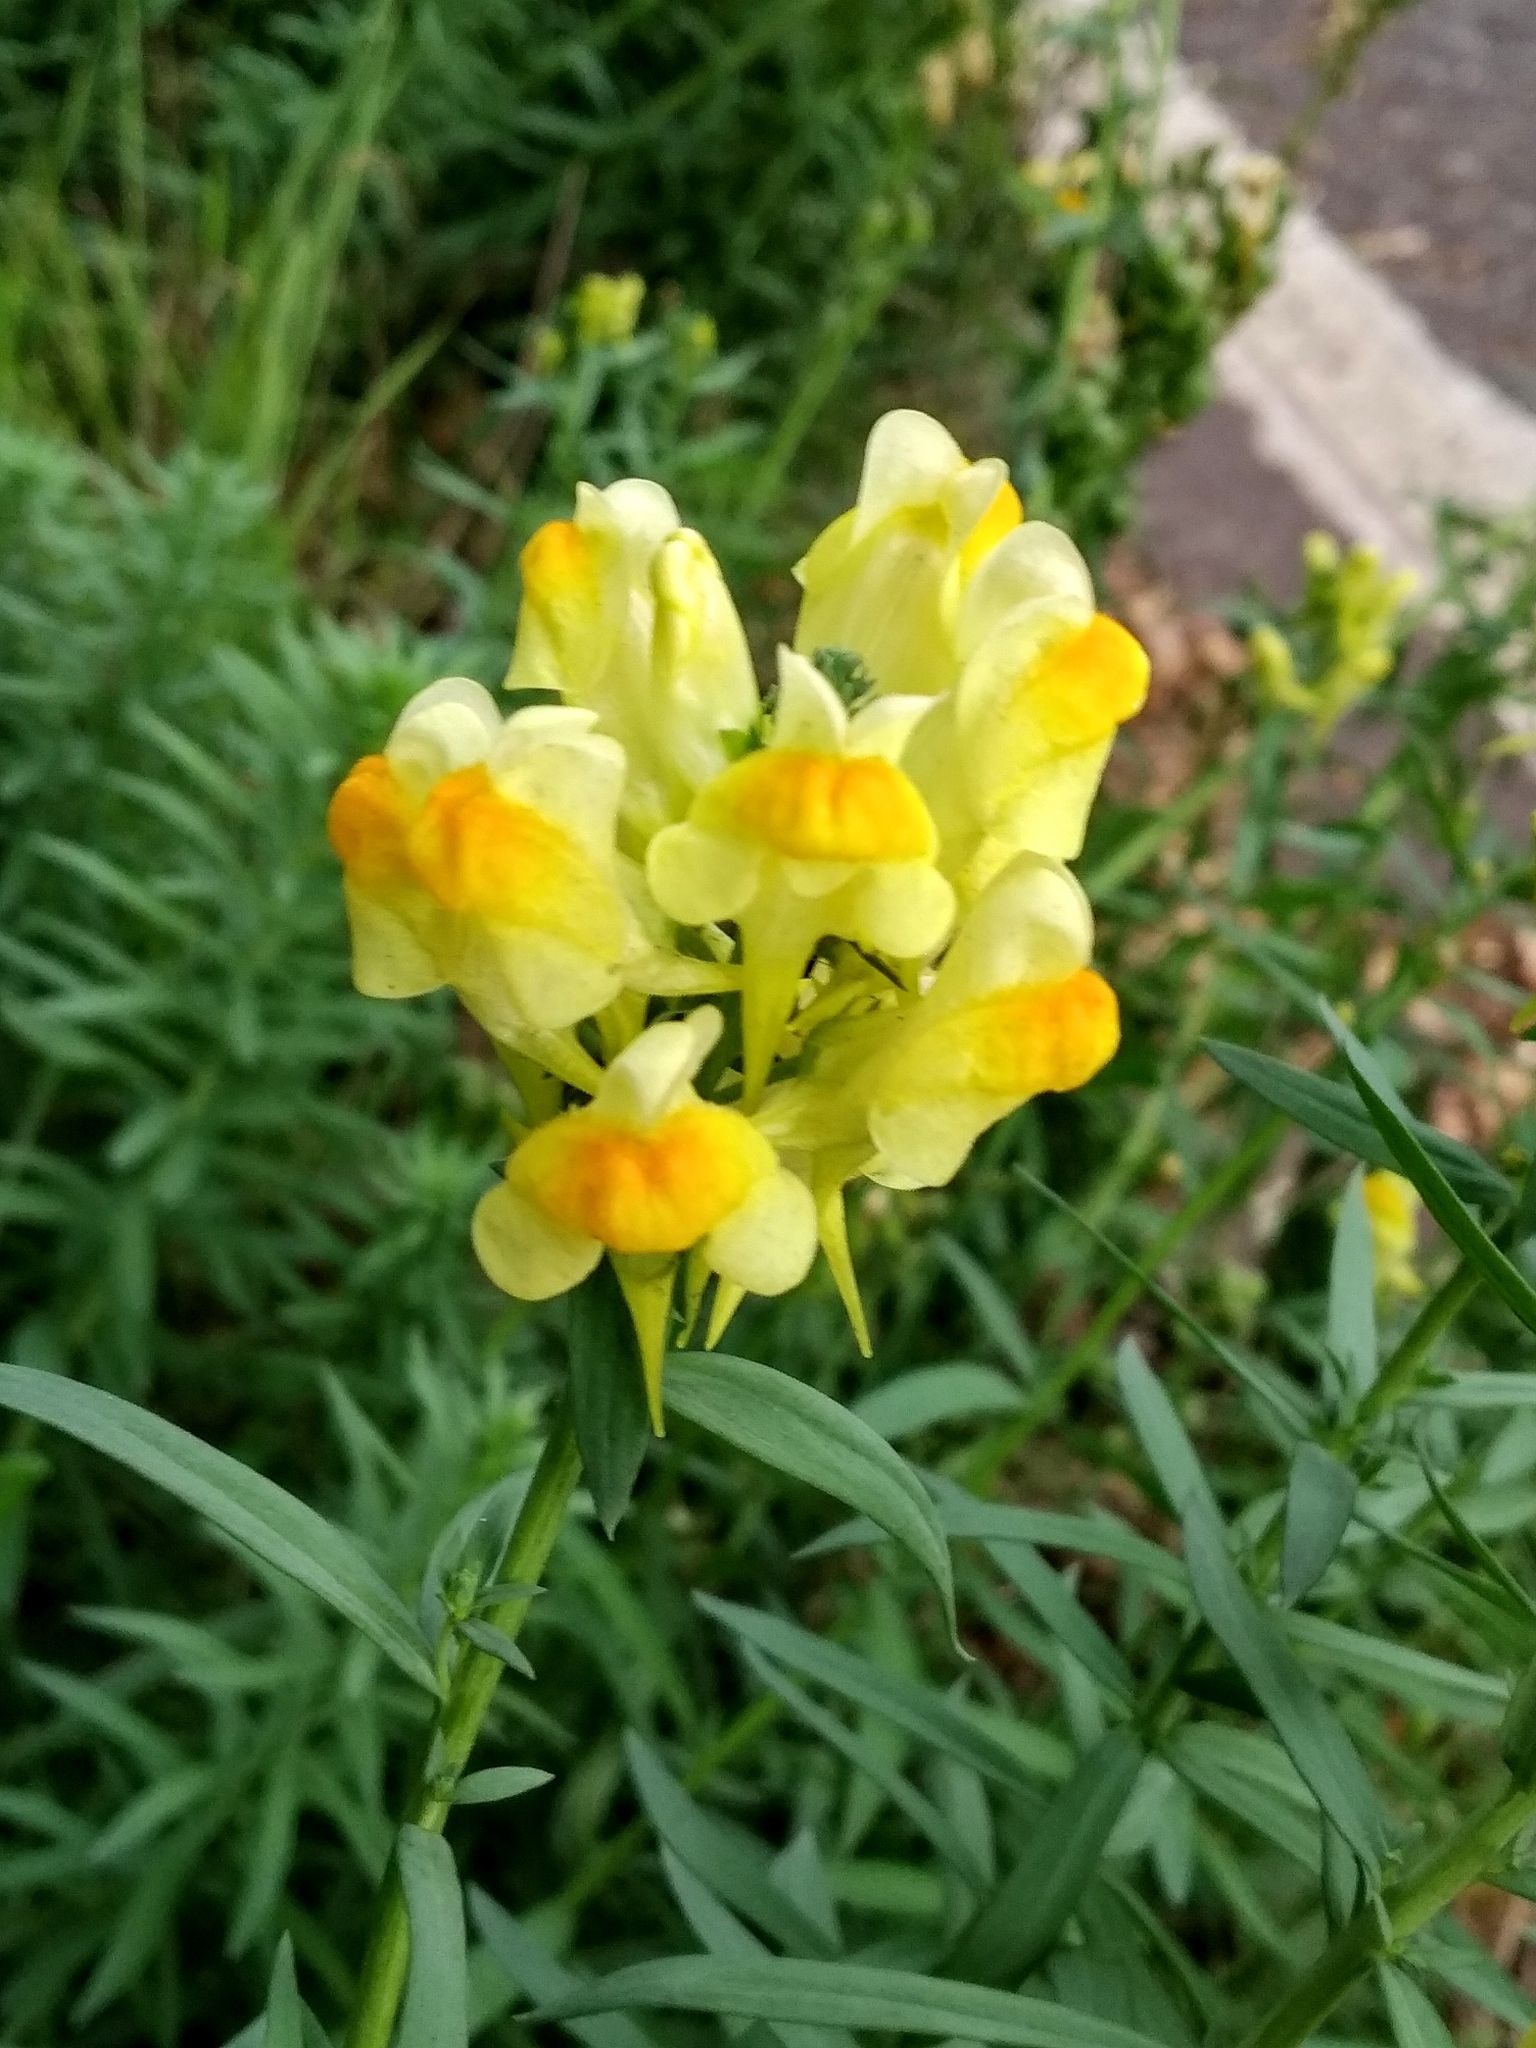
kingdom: Plantae
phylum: Tracheophyta
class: Magnoliopsida
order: Lamiales
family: Plantaginaceae
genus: Linaria
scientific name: Linaria vulgaris
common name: Butter and eggs
